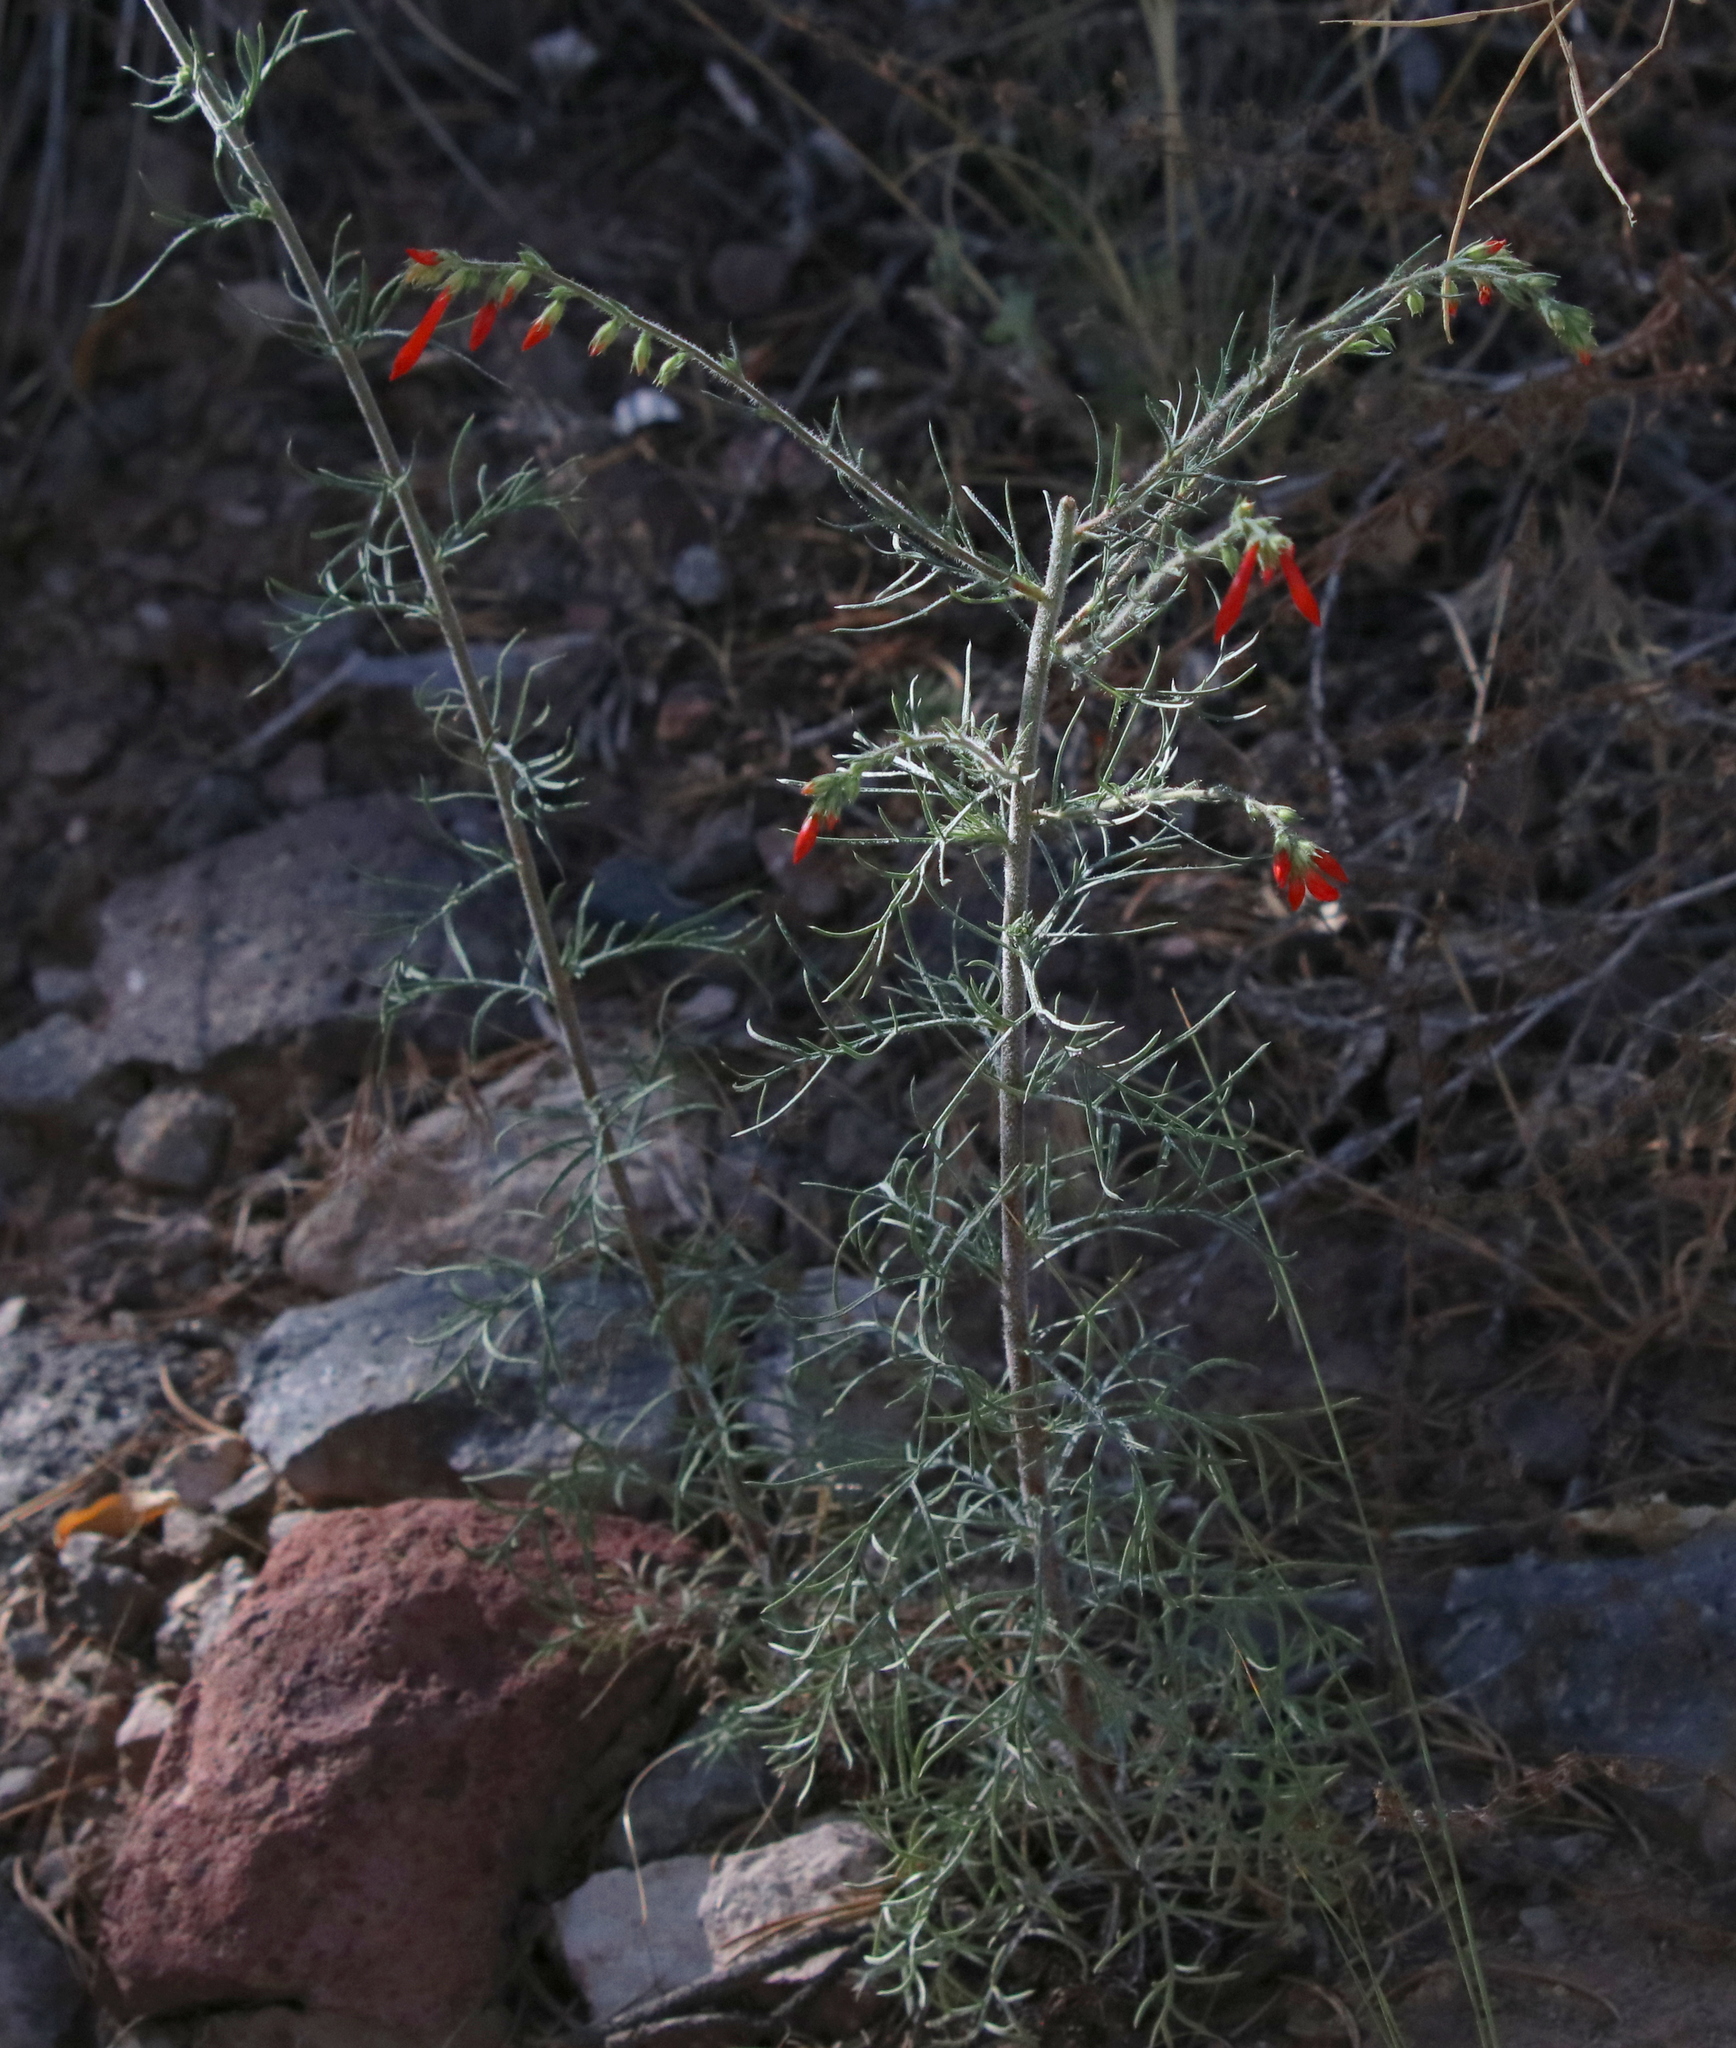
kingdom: Plantae
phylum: Tracheophyta
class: Magnoliopsida
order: Ericales
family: Polemoniaceae
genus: Ipomopsis
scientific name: Ipomopsis aggregata
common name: Scarlet gilia
